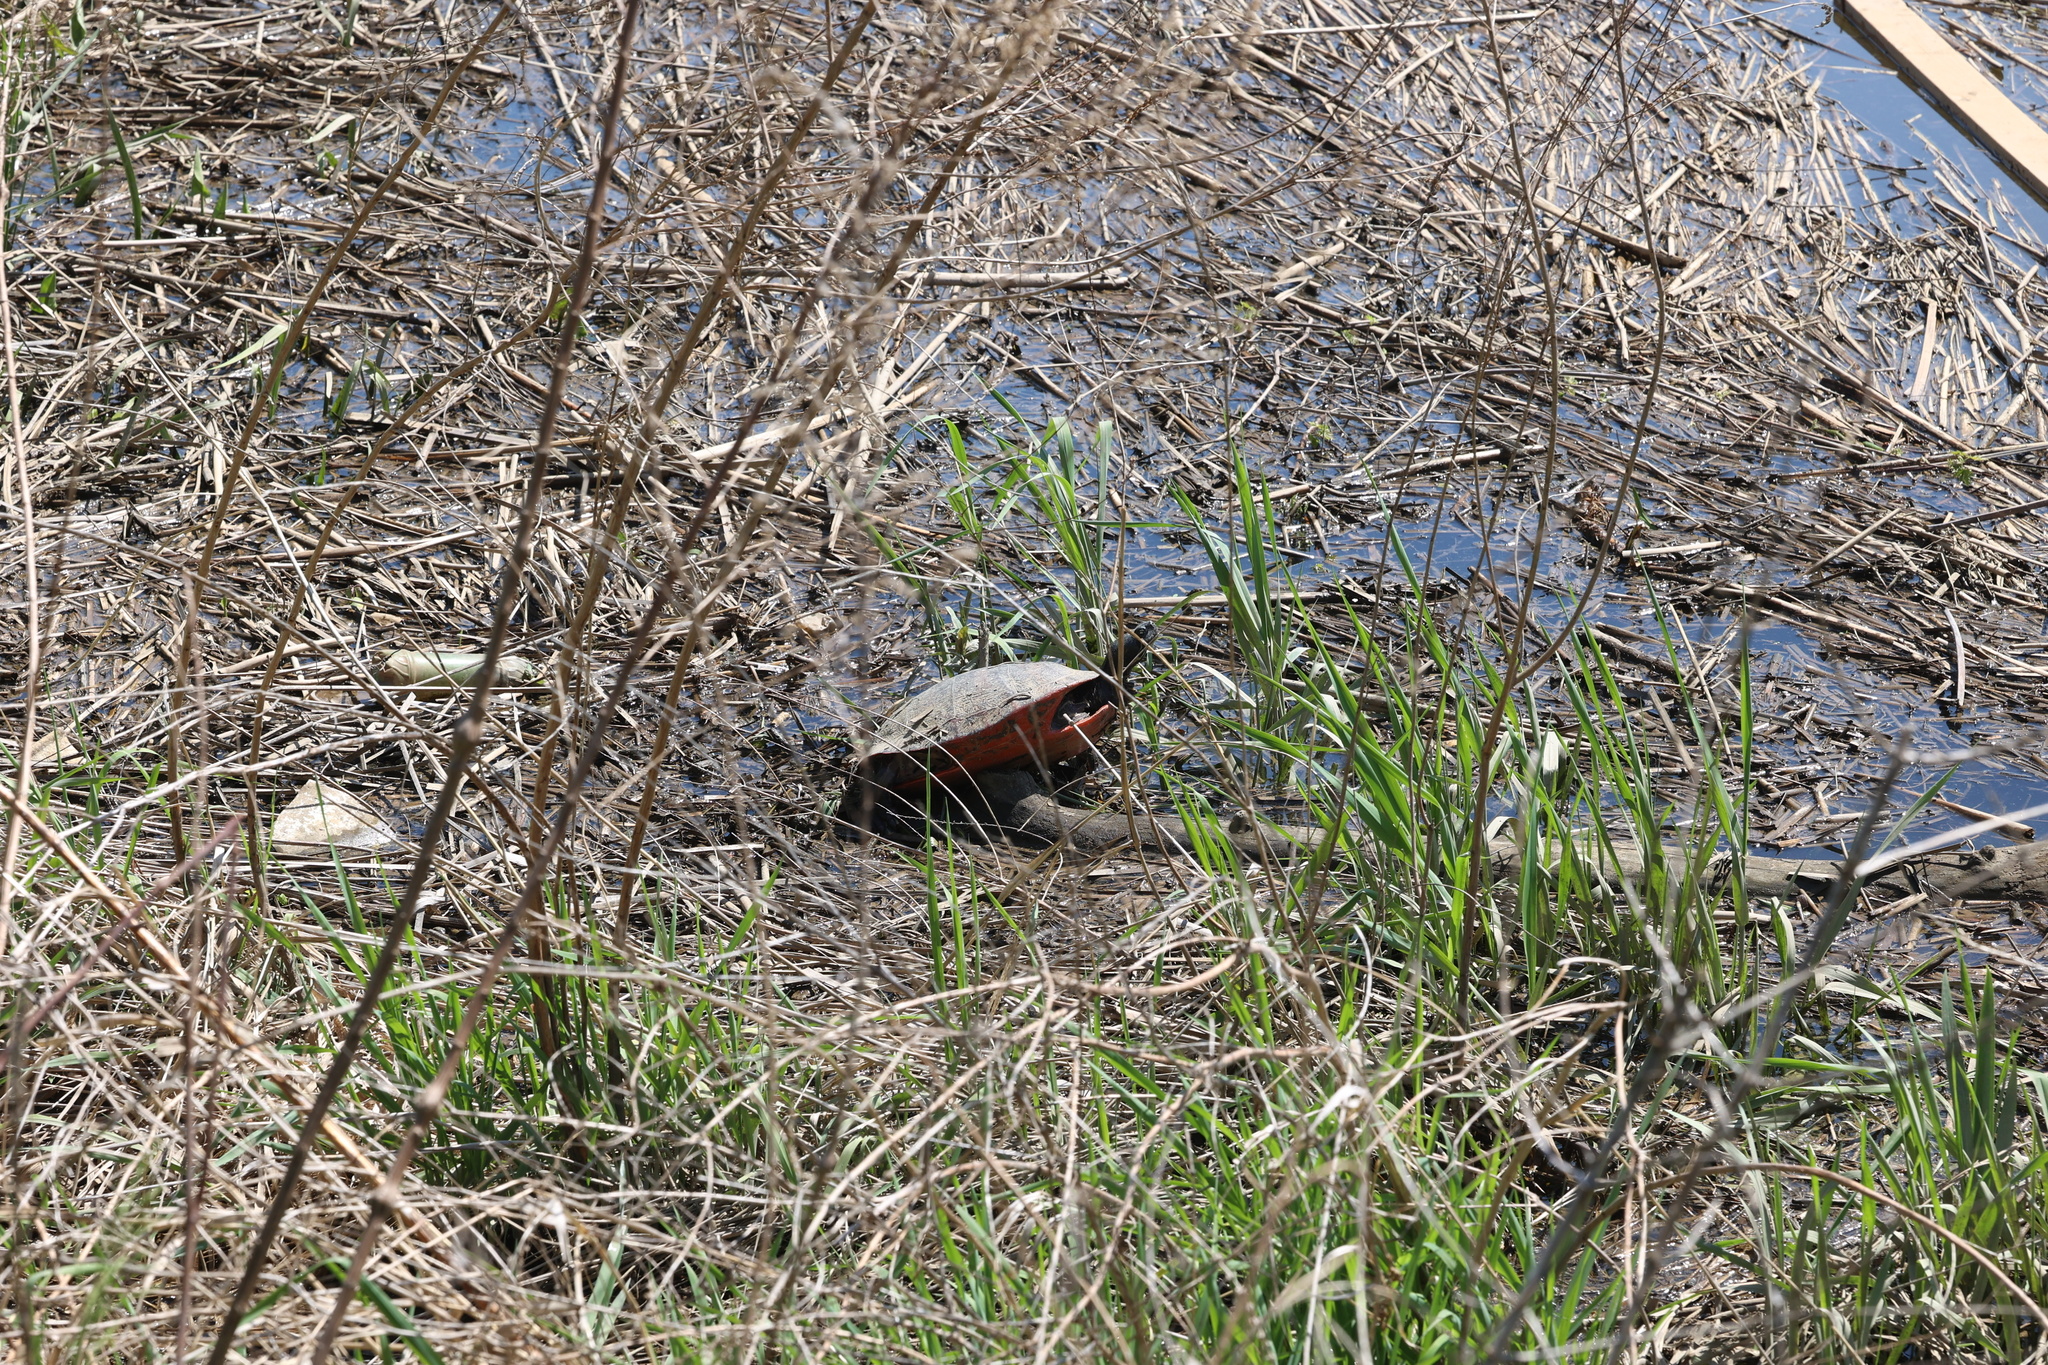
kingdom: Animalia
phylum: Chordata
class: Testudines
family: Emydidae
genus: Pseudemys
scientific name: Pseudemys rubriventris
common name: American red-bellied turtle
